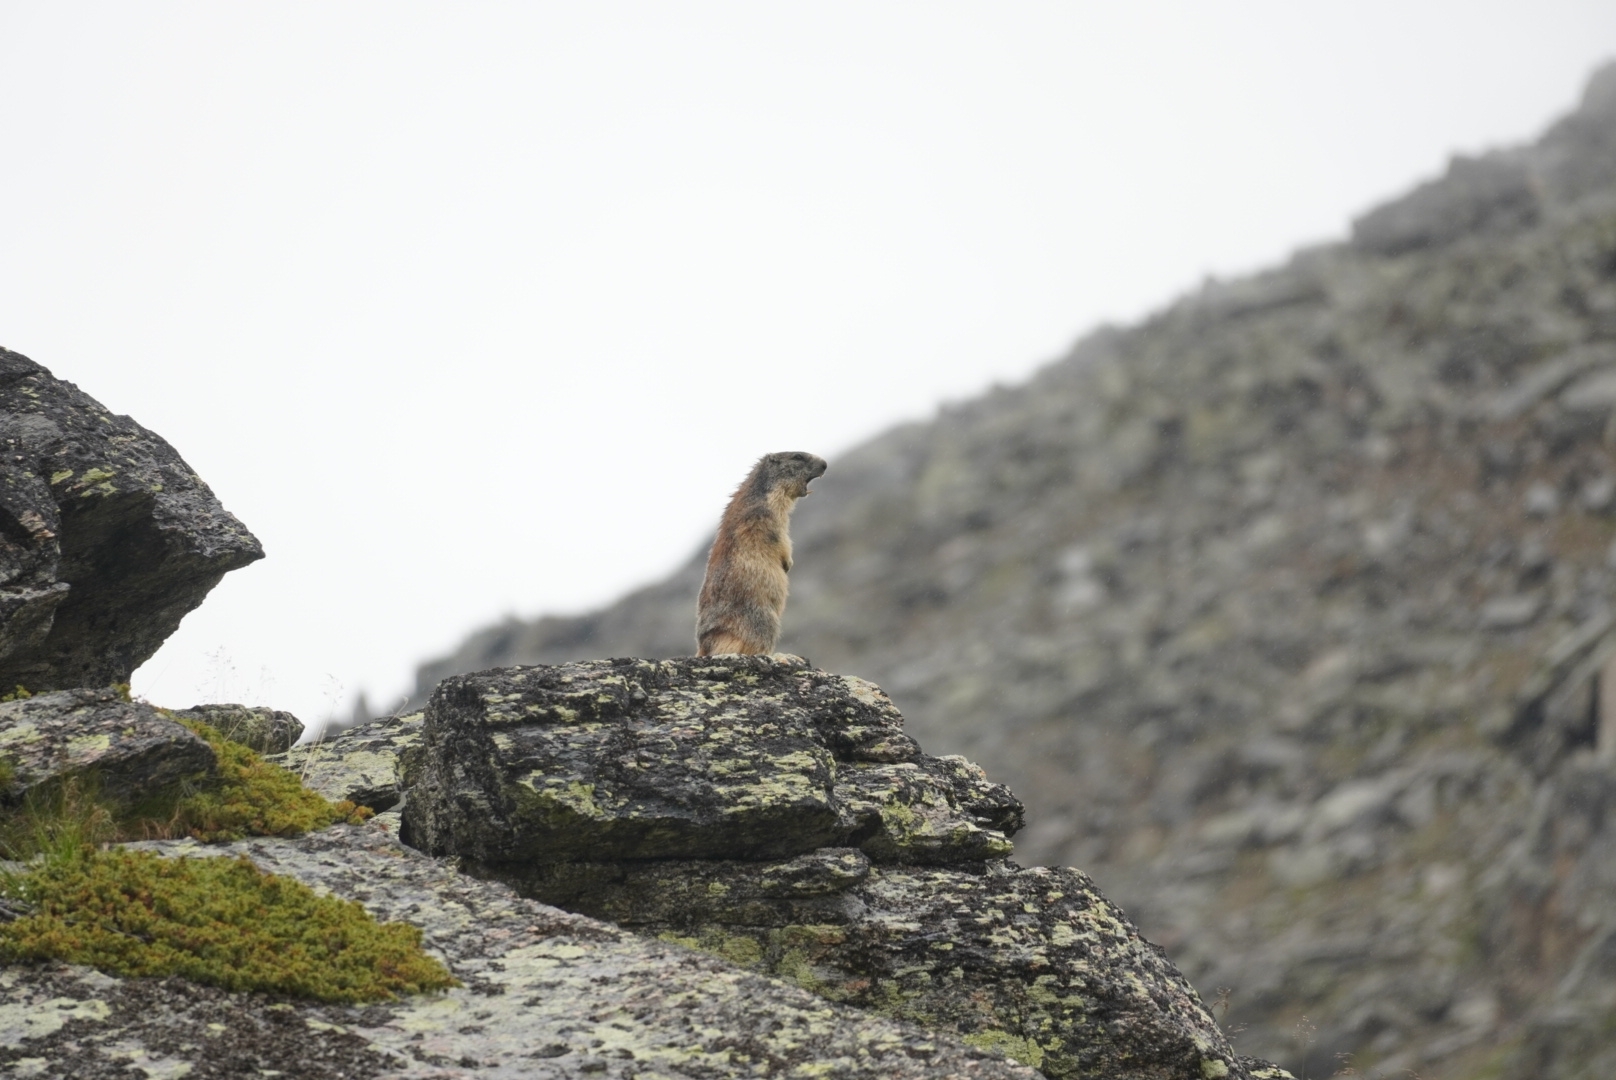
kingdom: Animalia
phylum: Chordata
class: Mammalia
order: Rodentia
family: Sciuridae
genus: Marmota
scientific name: Marmota marmota
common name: Alpine marmot
